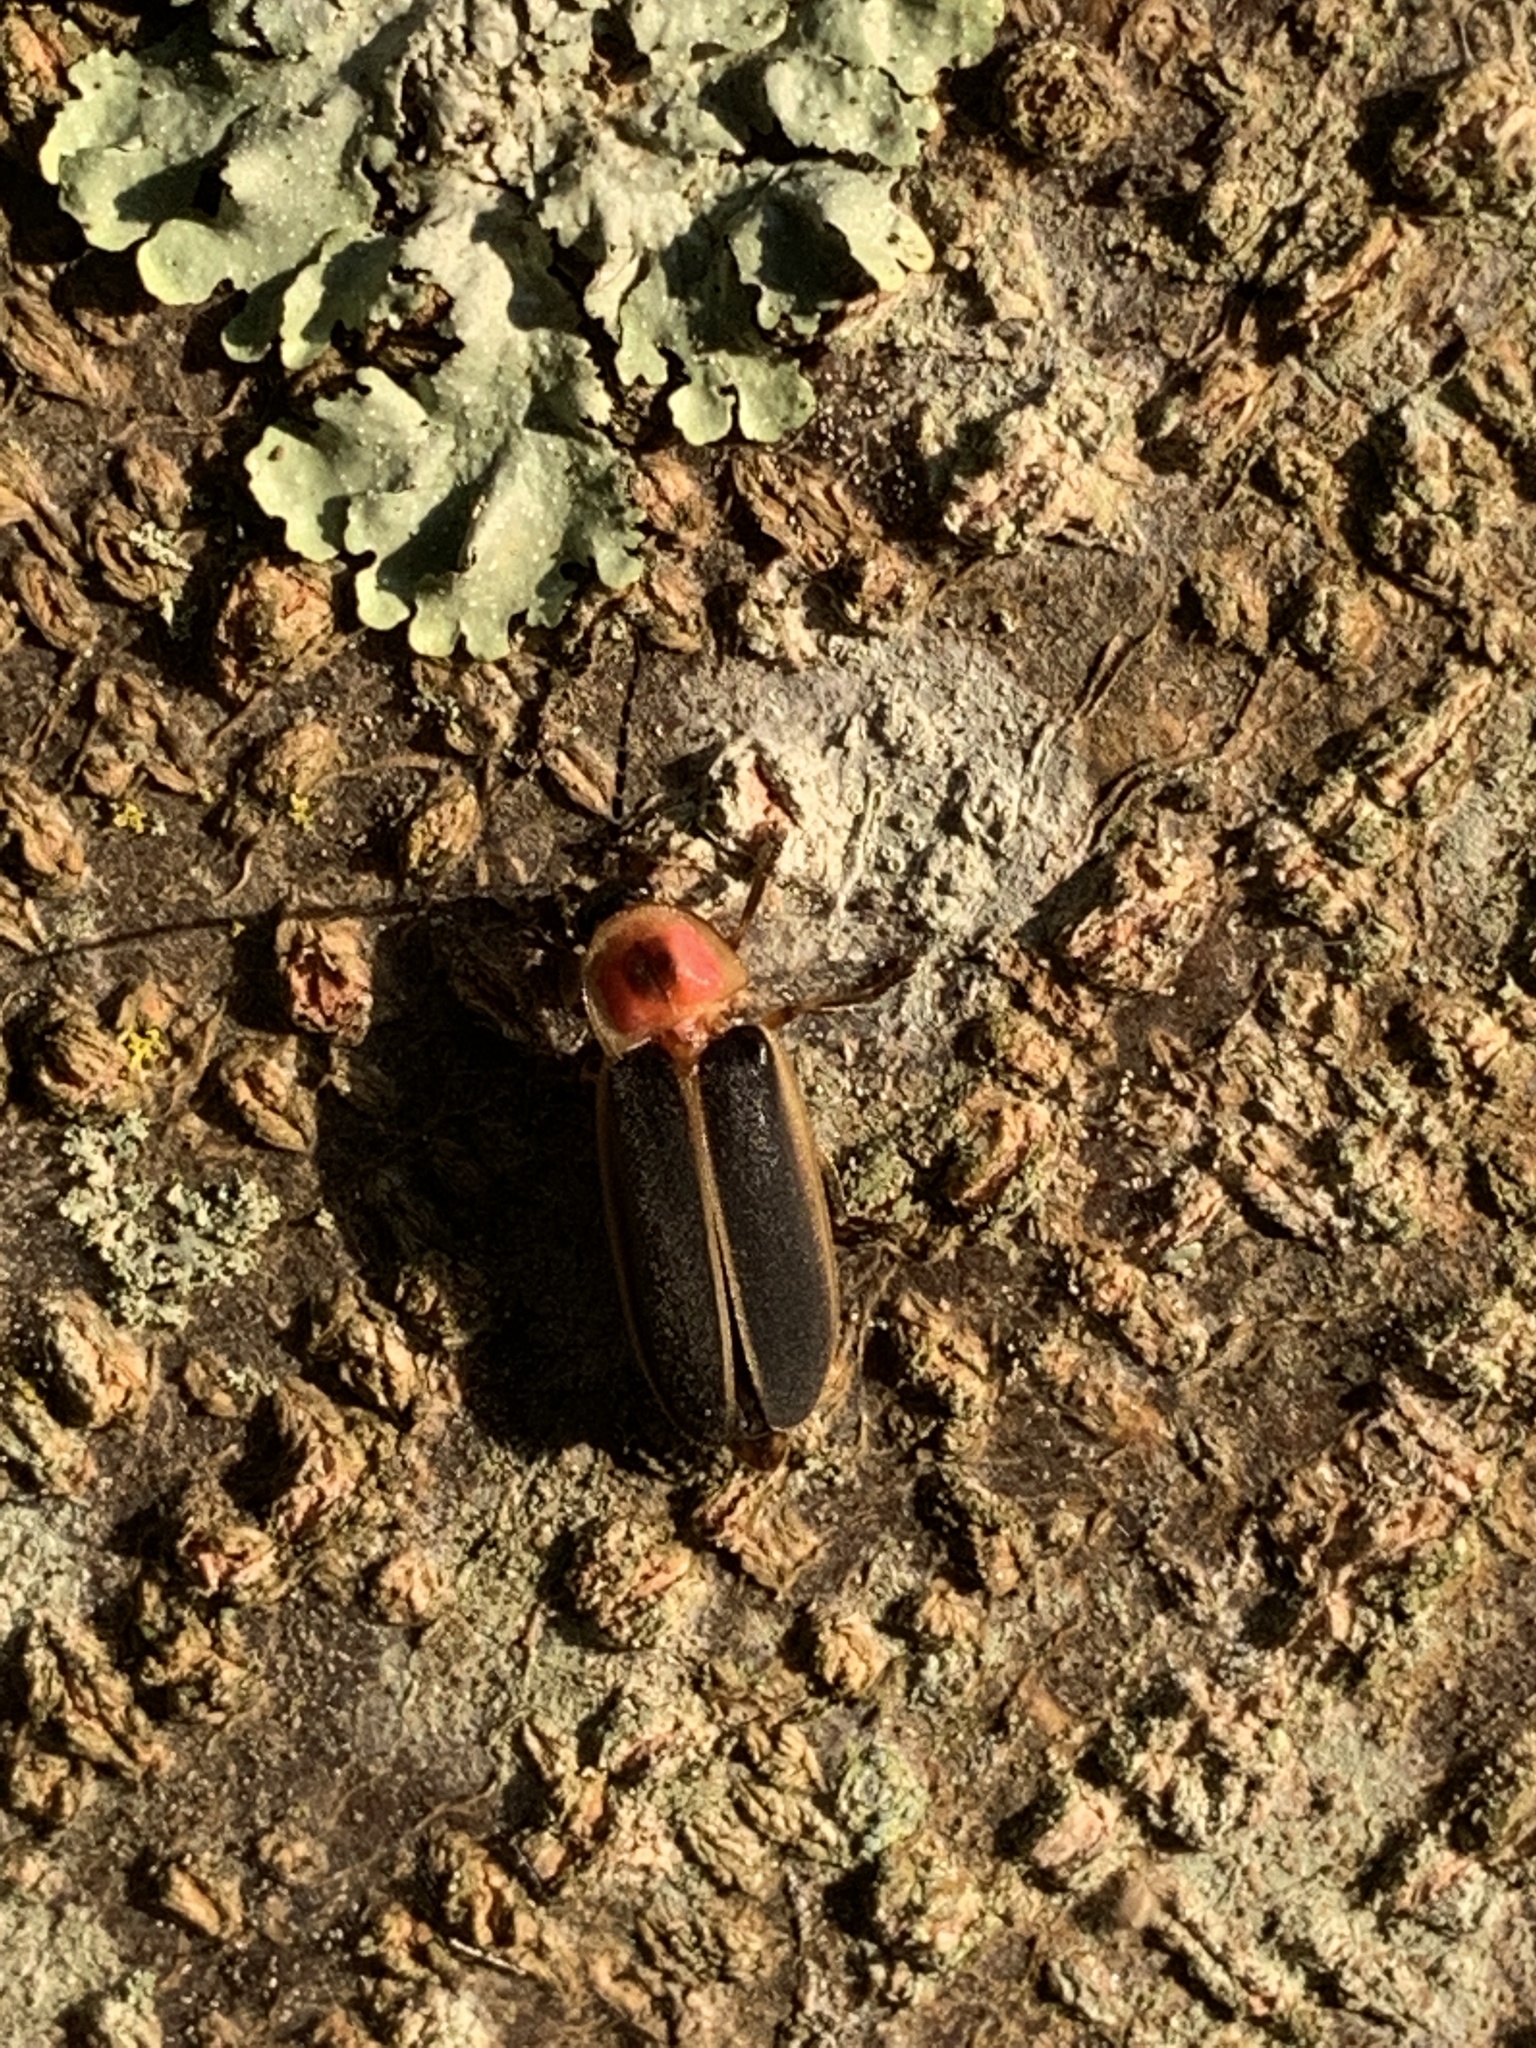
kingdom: Animalia
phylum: Arthropoda
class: Insecta
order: Coleoptera
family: Lampyridae
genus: Photinus
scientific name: Photinus pyralis
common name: Big dipper firefly
